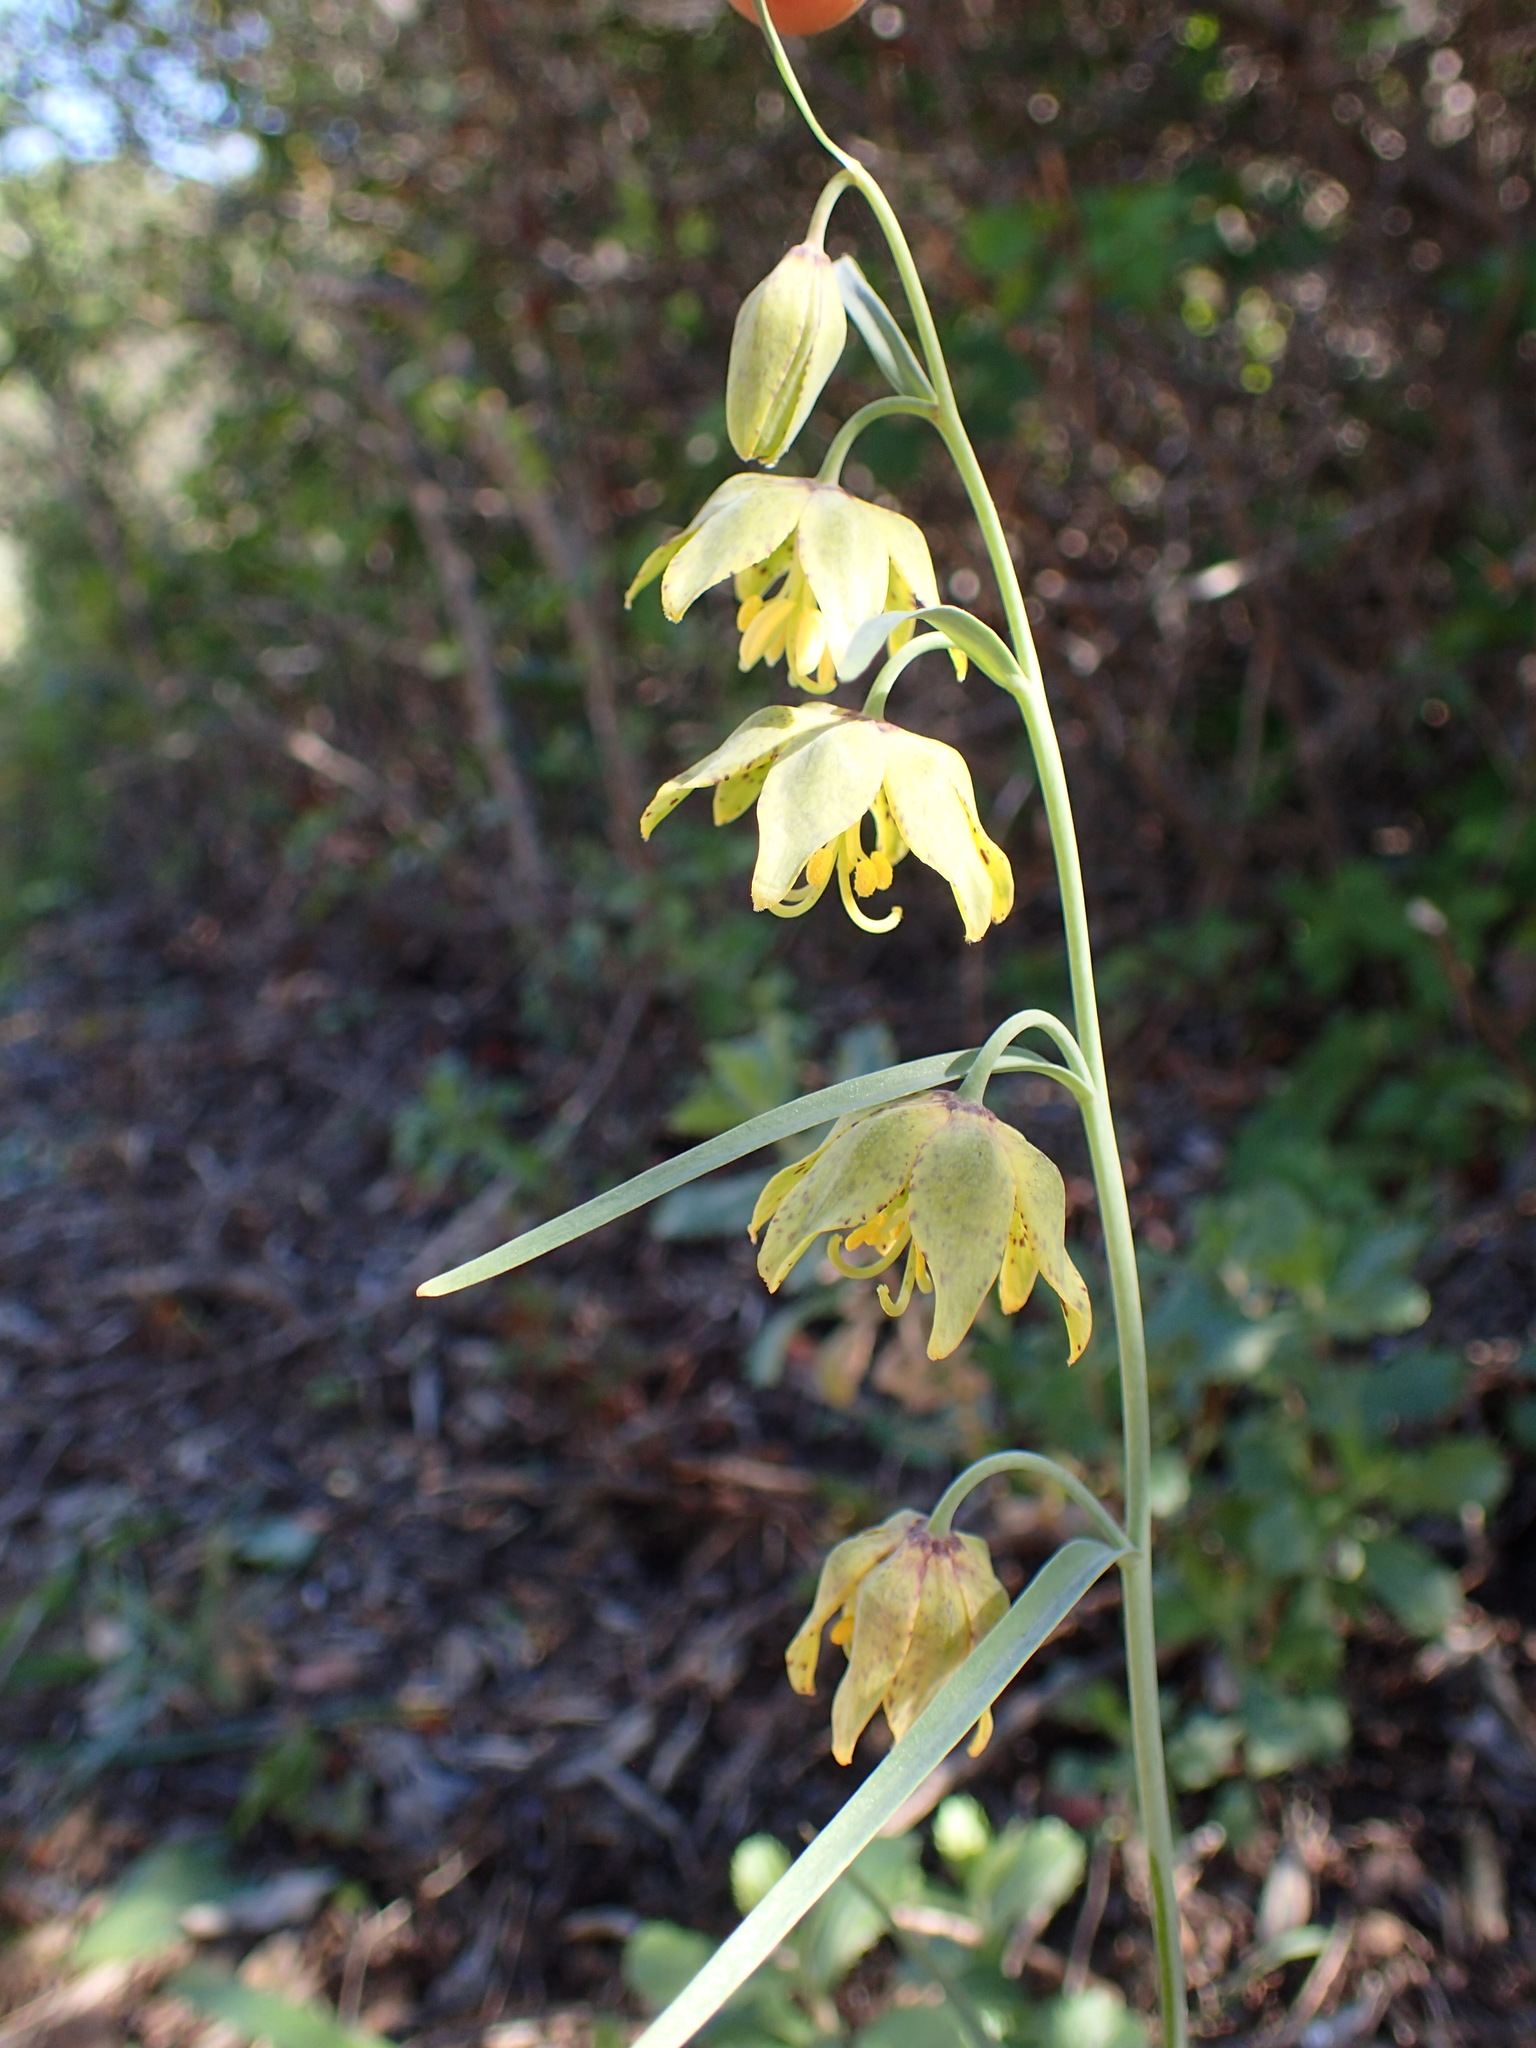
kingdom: Plantae
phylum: Tracheophyta
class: Liliopsida
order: Liliales
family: Liliaceae
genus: Fritillaria
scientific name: Fritillaria ojaiensis
